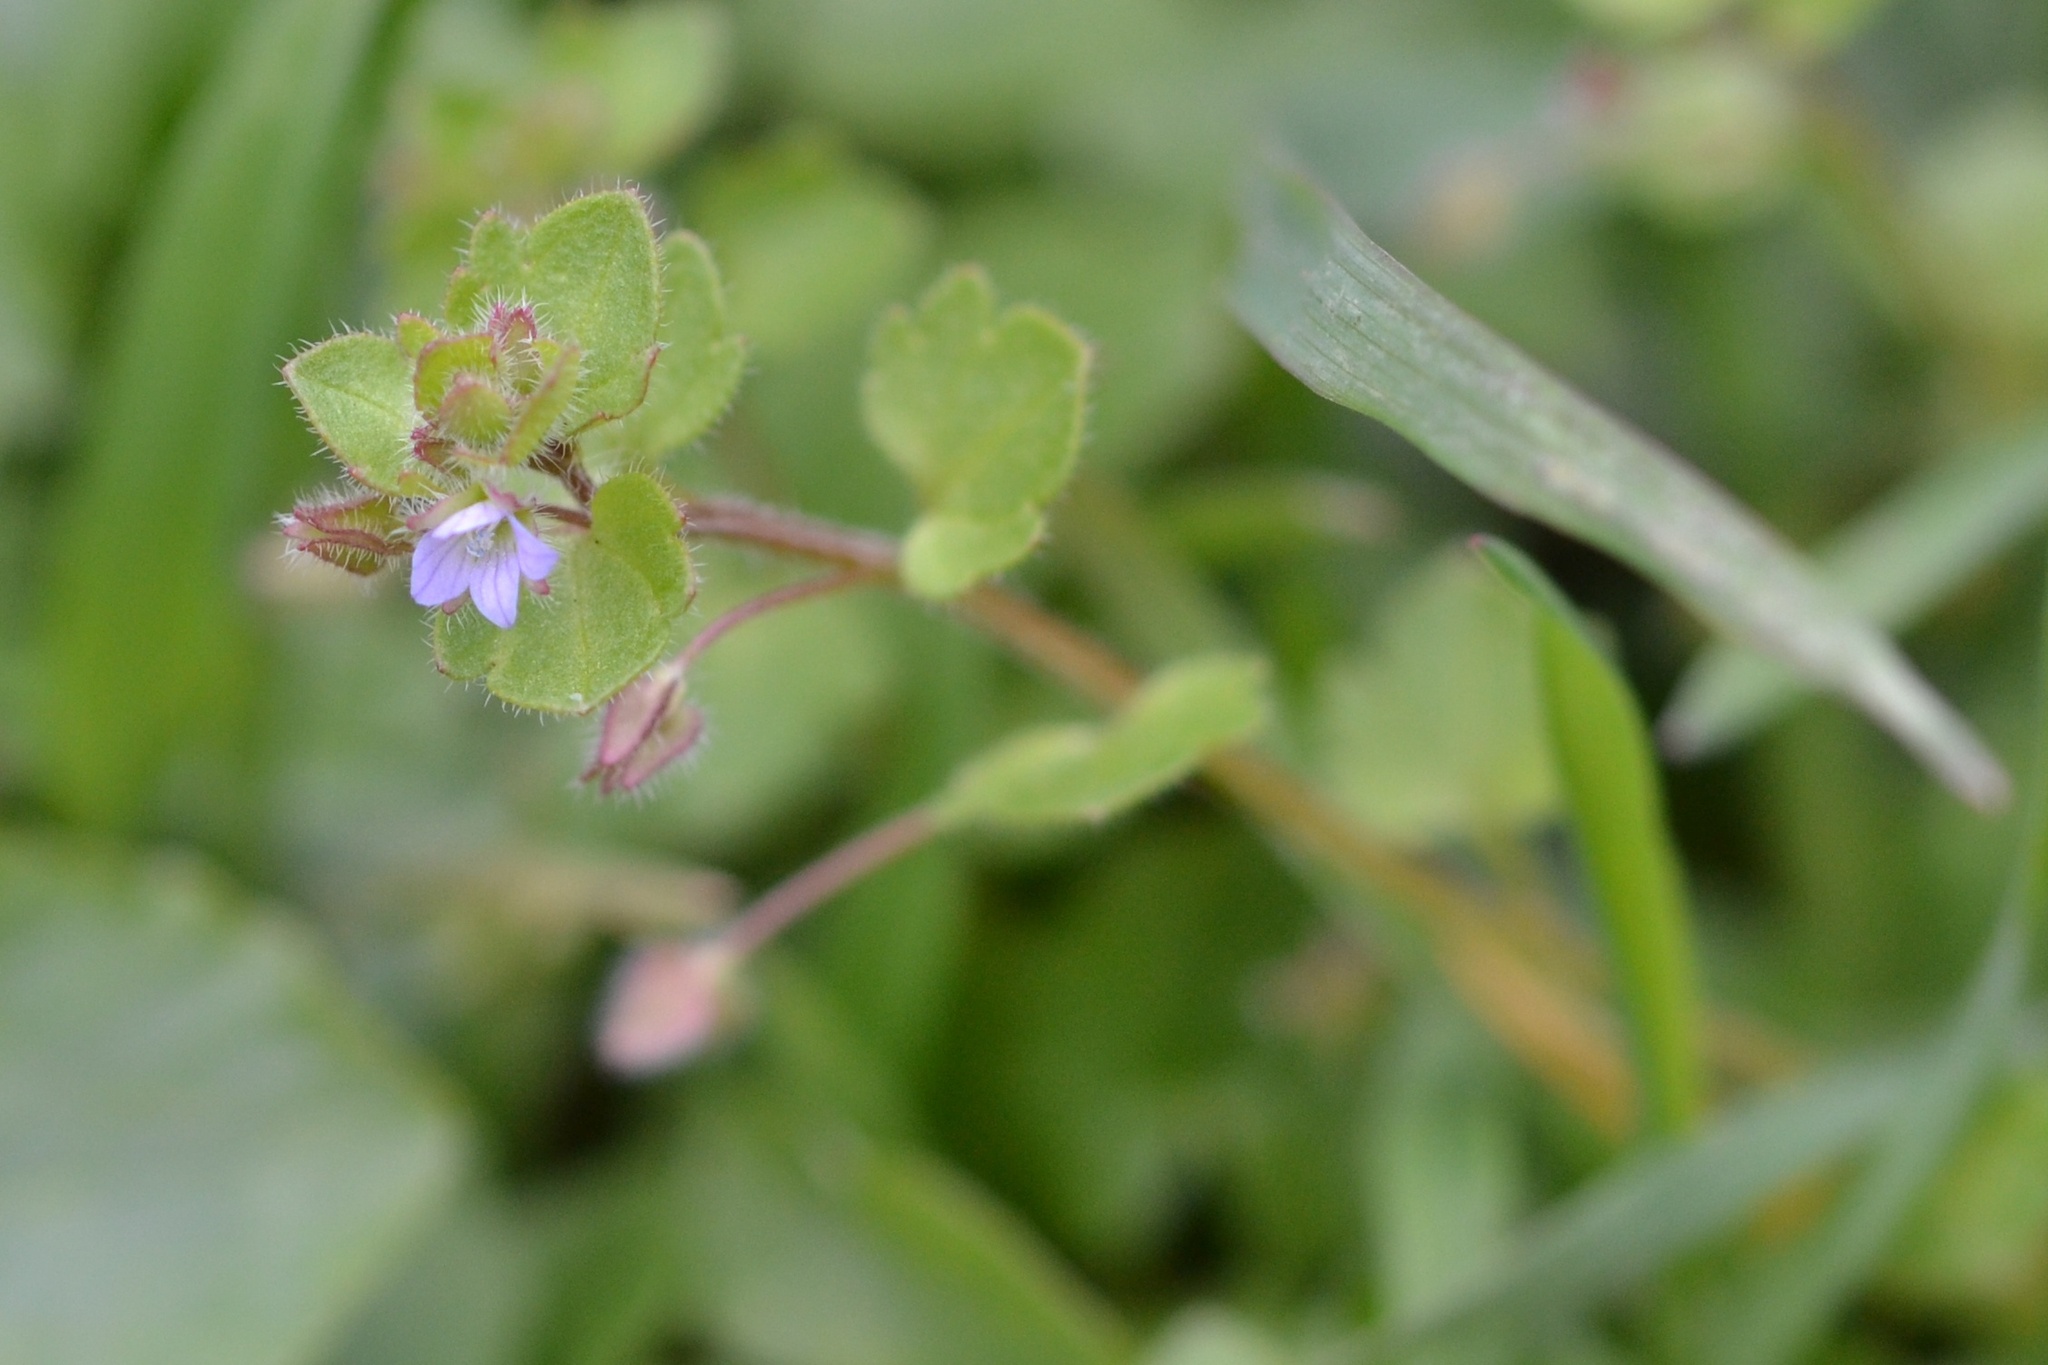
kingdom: Plantae
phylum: Tracheophyta
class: Magnoliopsida
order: Lamiales
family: Plantaginaceae
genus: Veronica
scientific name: Veronica sublobata
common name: False ivy-leaved speedwell
